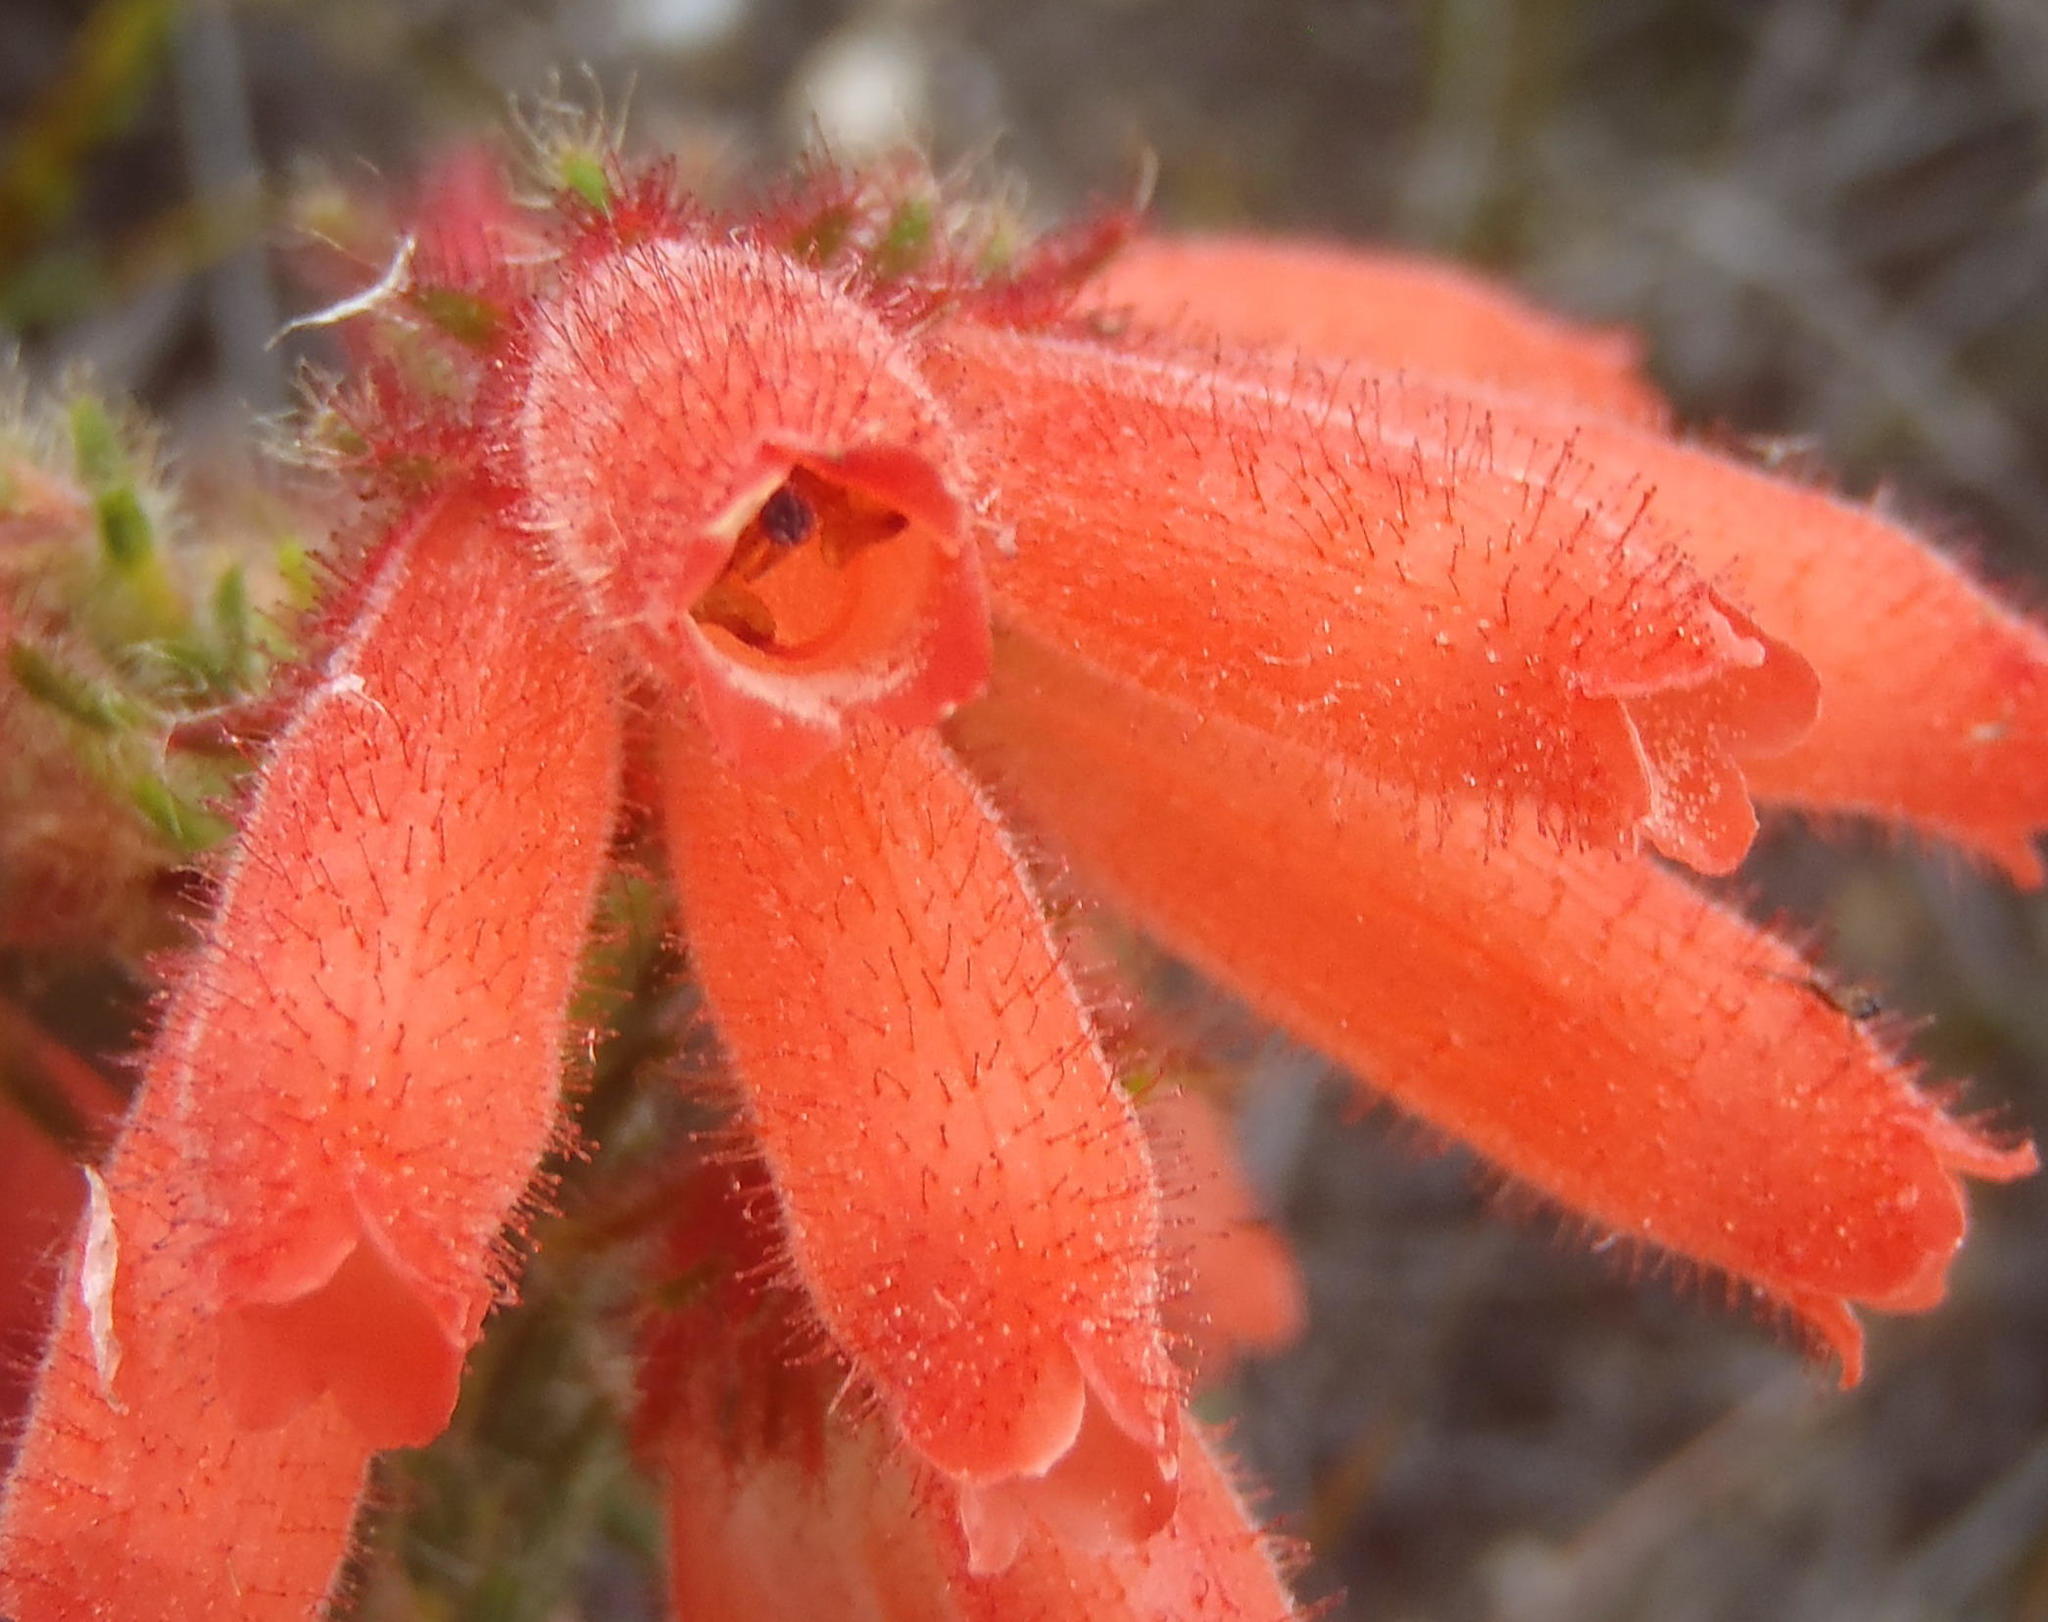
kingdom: Plantae
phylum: Tracheophyta
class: Magnoliopsida
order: Ericales
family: Ericaceae
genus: Erica
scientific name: Erica cerinthoides
